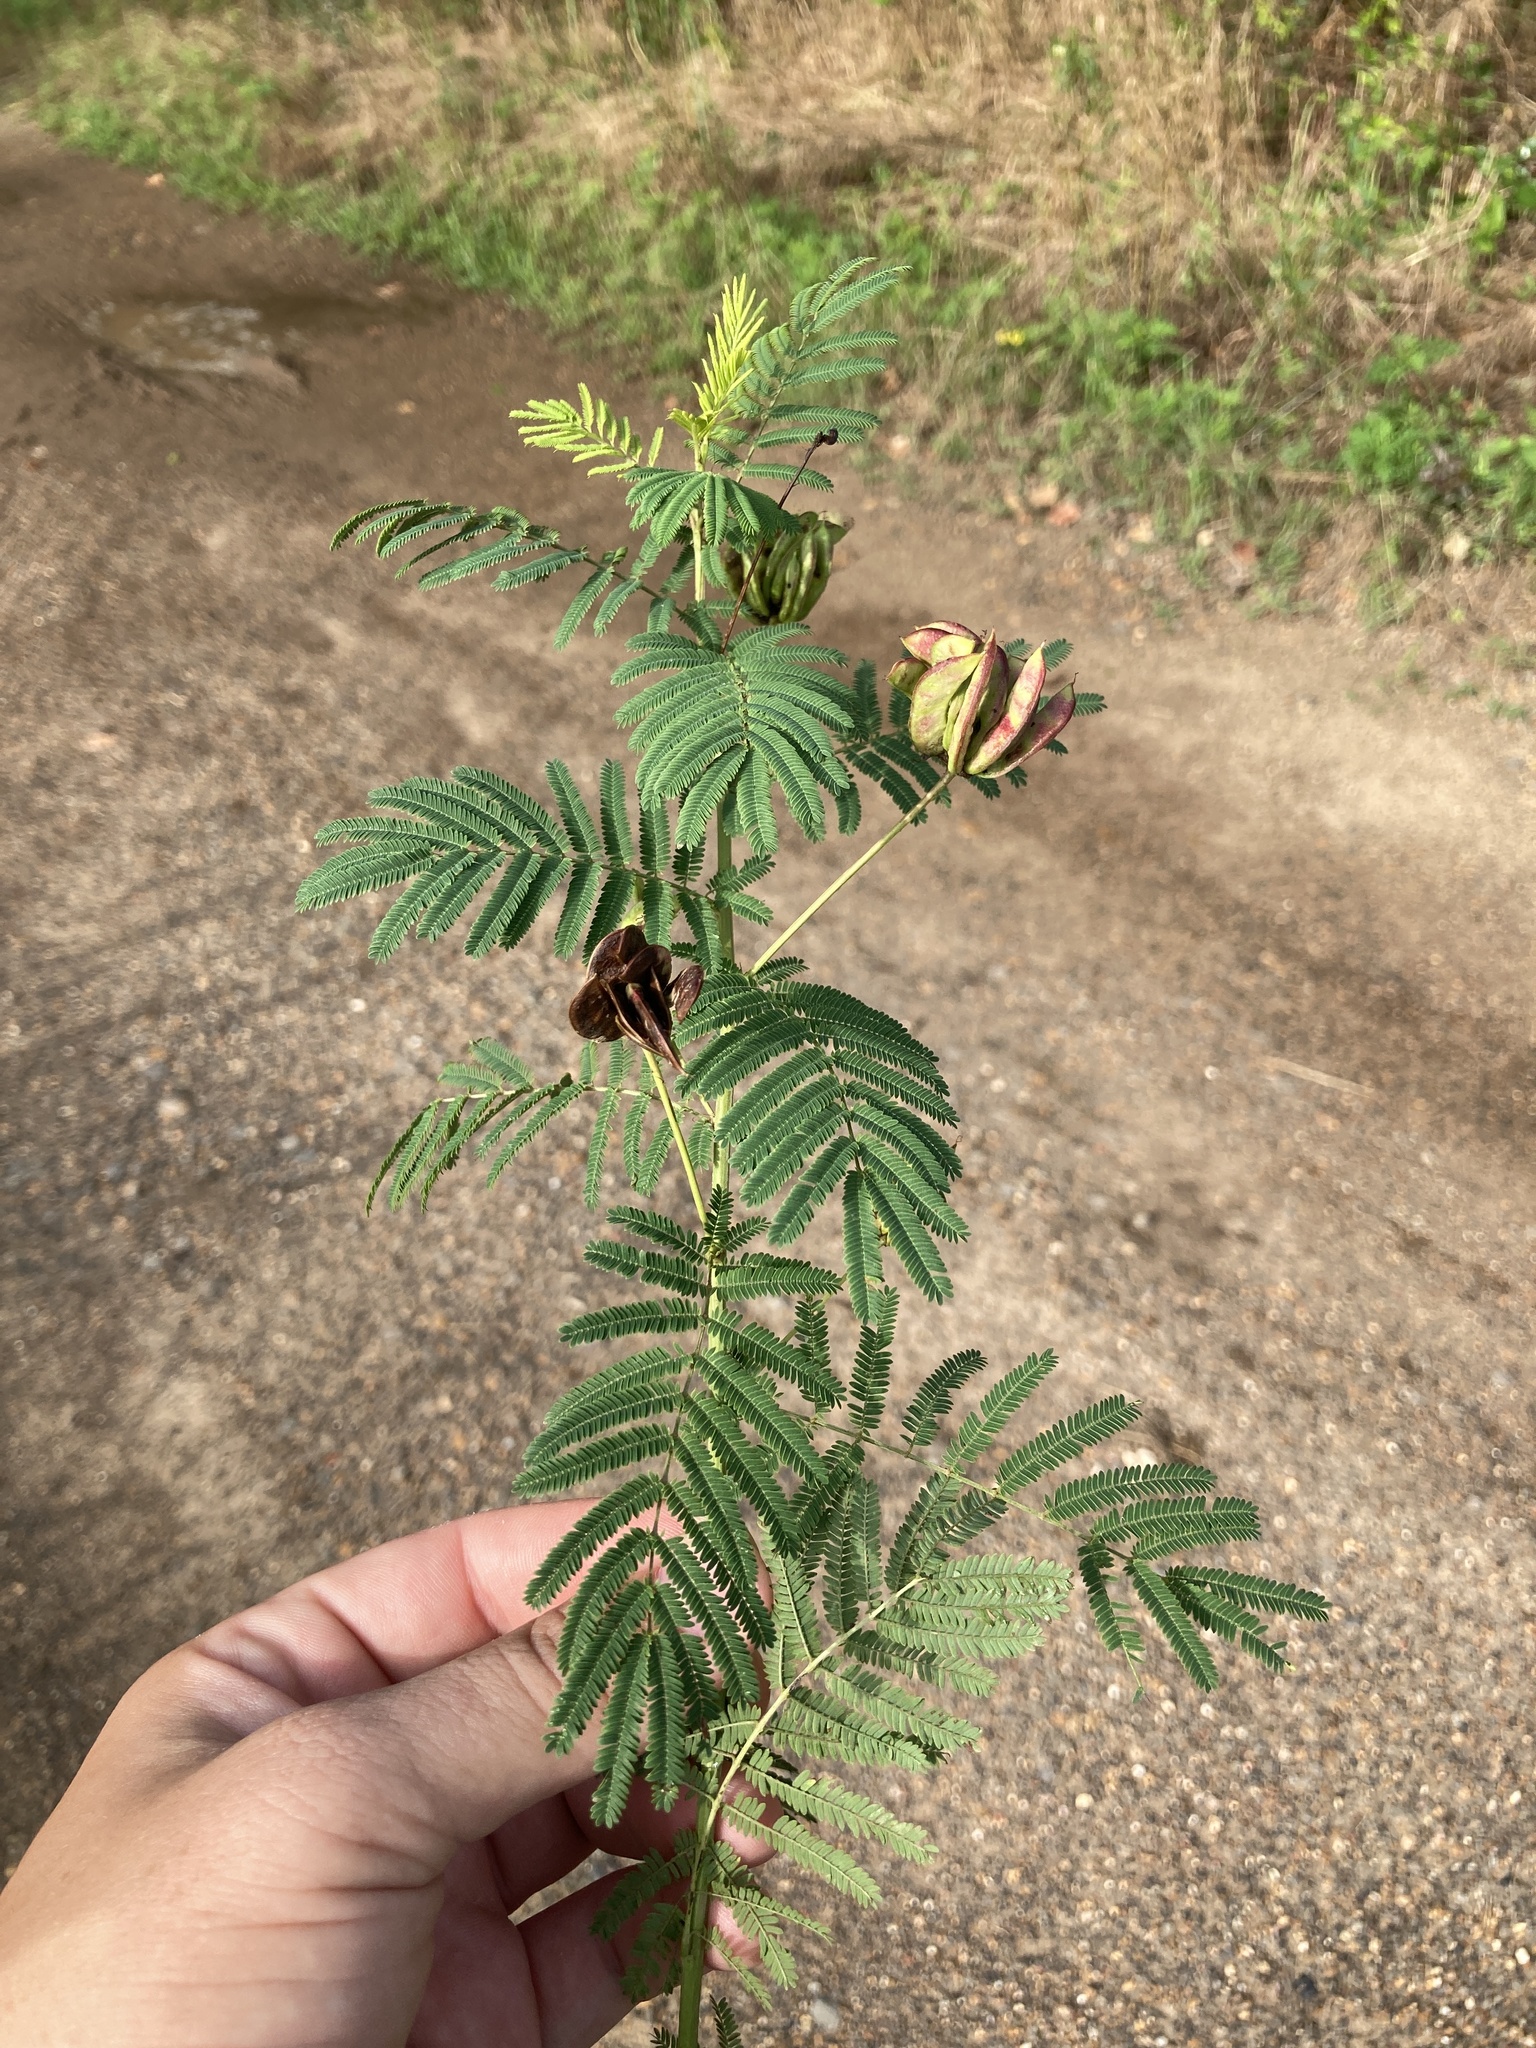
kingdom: Plantae
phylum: Tracheophyta
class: Magnoliopsida
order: Fabales
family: Fabaceae
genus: Desmanthus
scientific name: Desmanthus illinoensis
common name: Illinois bundle-flower
